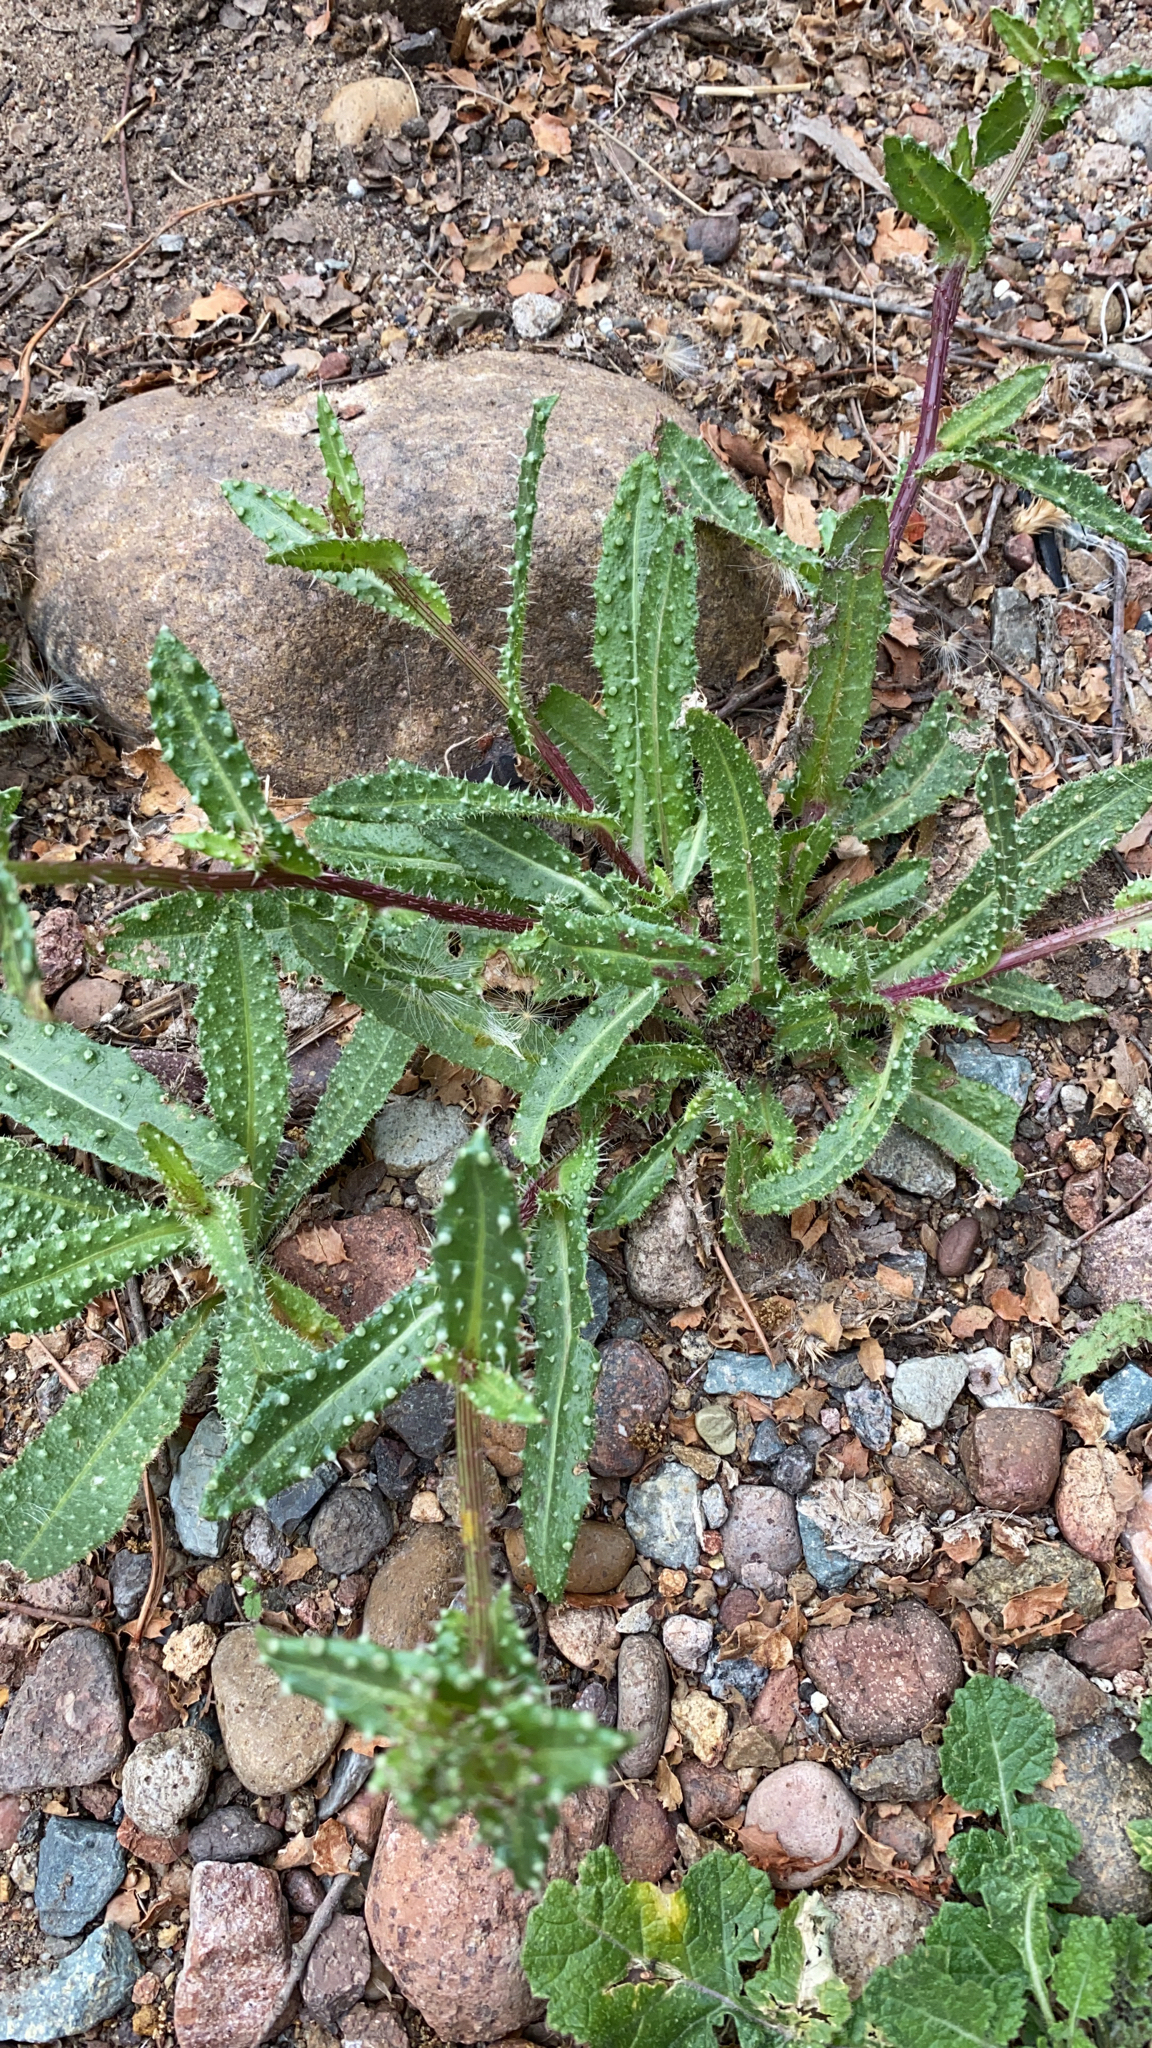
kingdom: Plantae
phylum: Tracheophyta
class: Magnoliopsida
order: Asterales
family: Asteraceae
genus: Helminthotheca
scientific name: Helminthotheca echioides
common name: Ox-tongue
